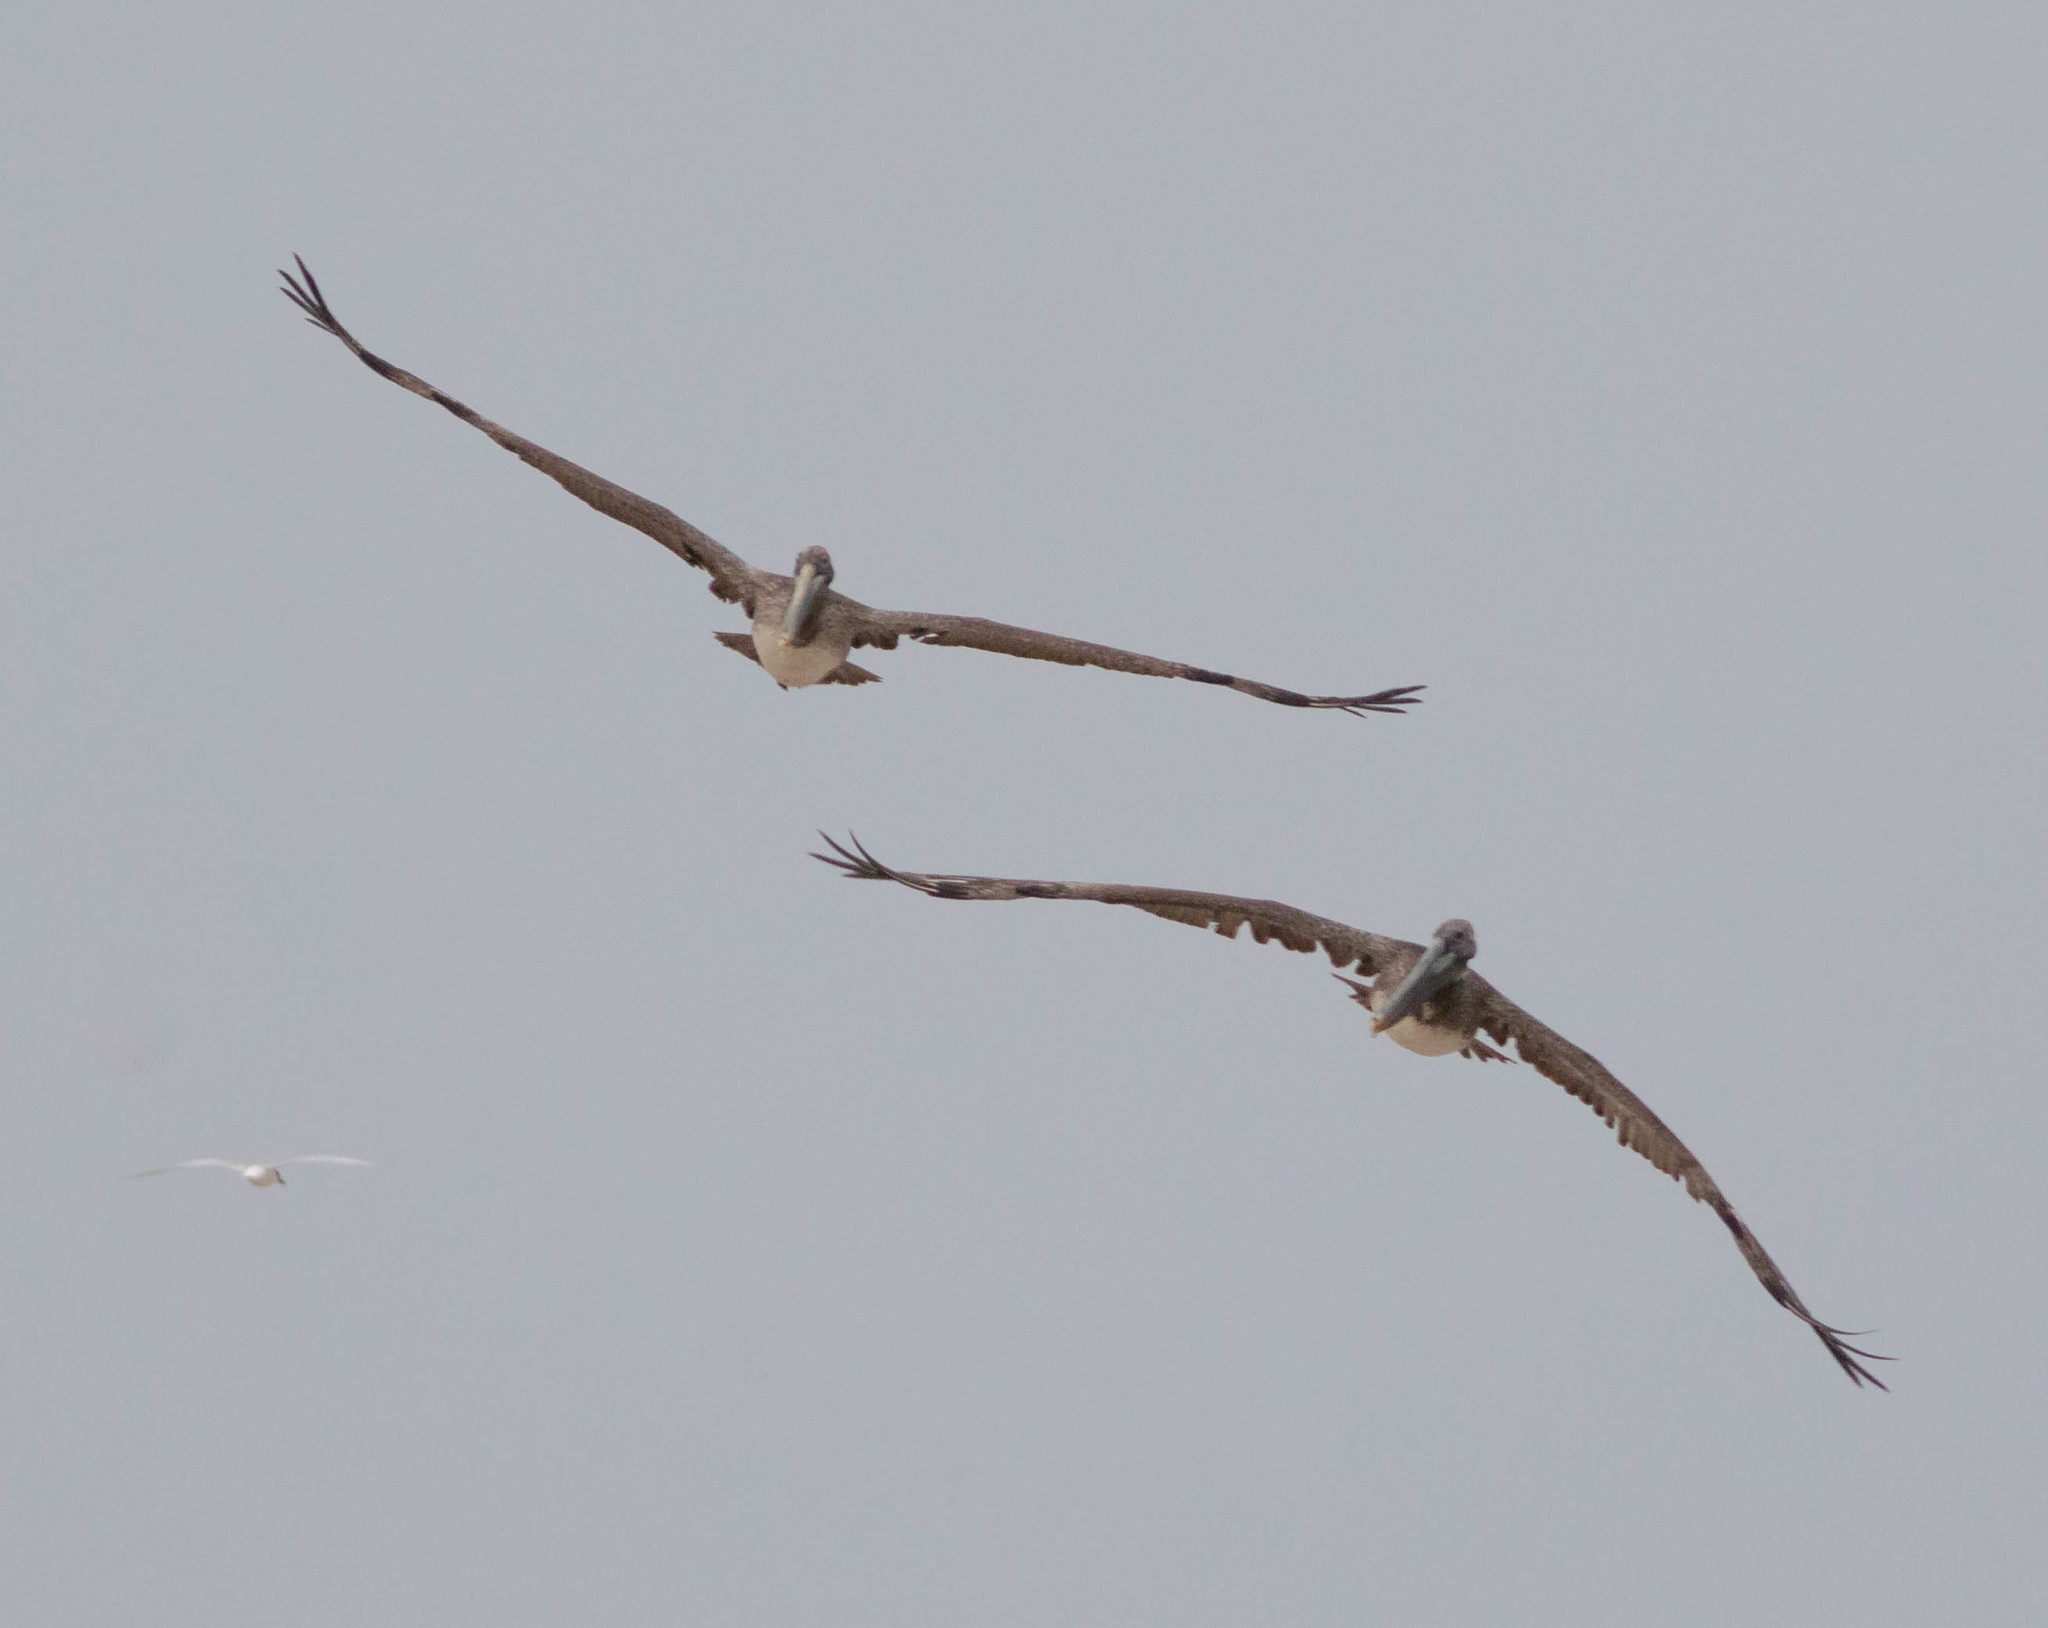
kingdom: Animalia
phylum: Chordata
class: Aves
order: Pelecaniformes
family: Pelecanidae
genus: Pelecanus
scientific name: Pelecanus occidentalis
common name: Brown pelican
